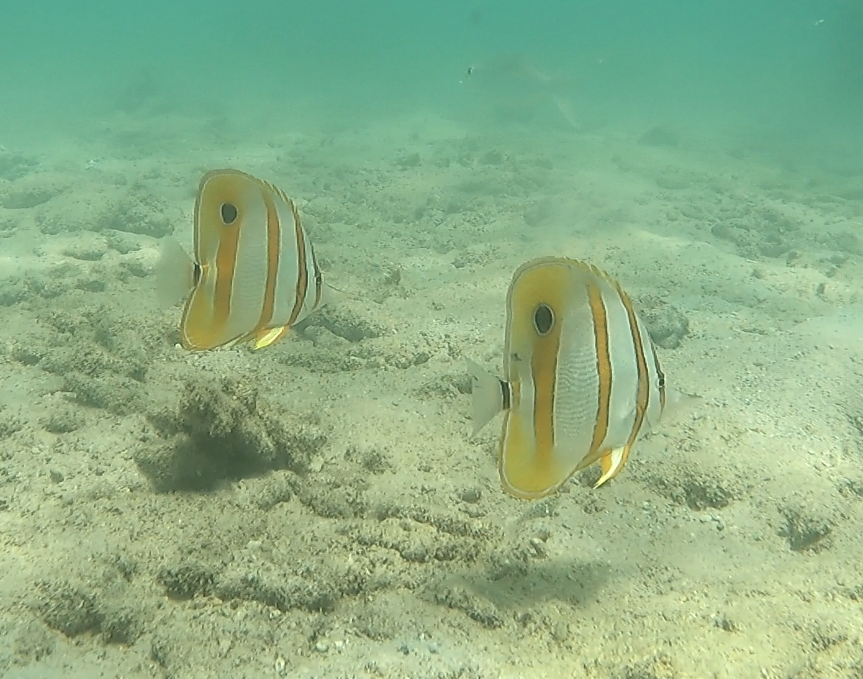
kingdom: Animalia
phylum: Chordata
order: Perciformes
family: Chaetodontidae
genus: Chelmon
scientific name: Chelmon rostratus
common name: Beaked butterflyfish
